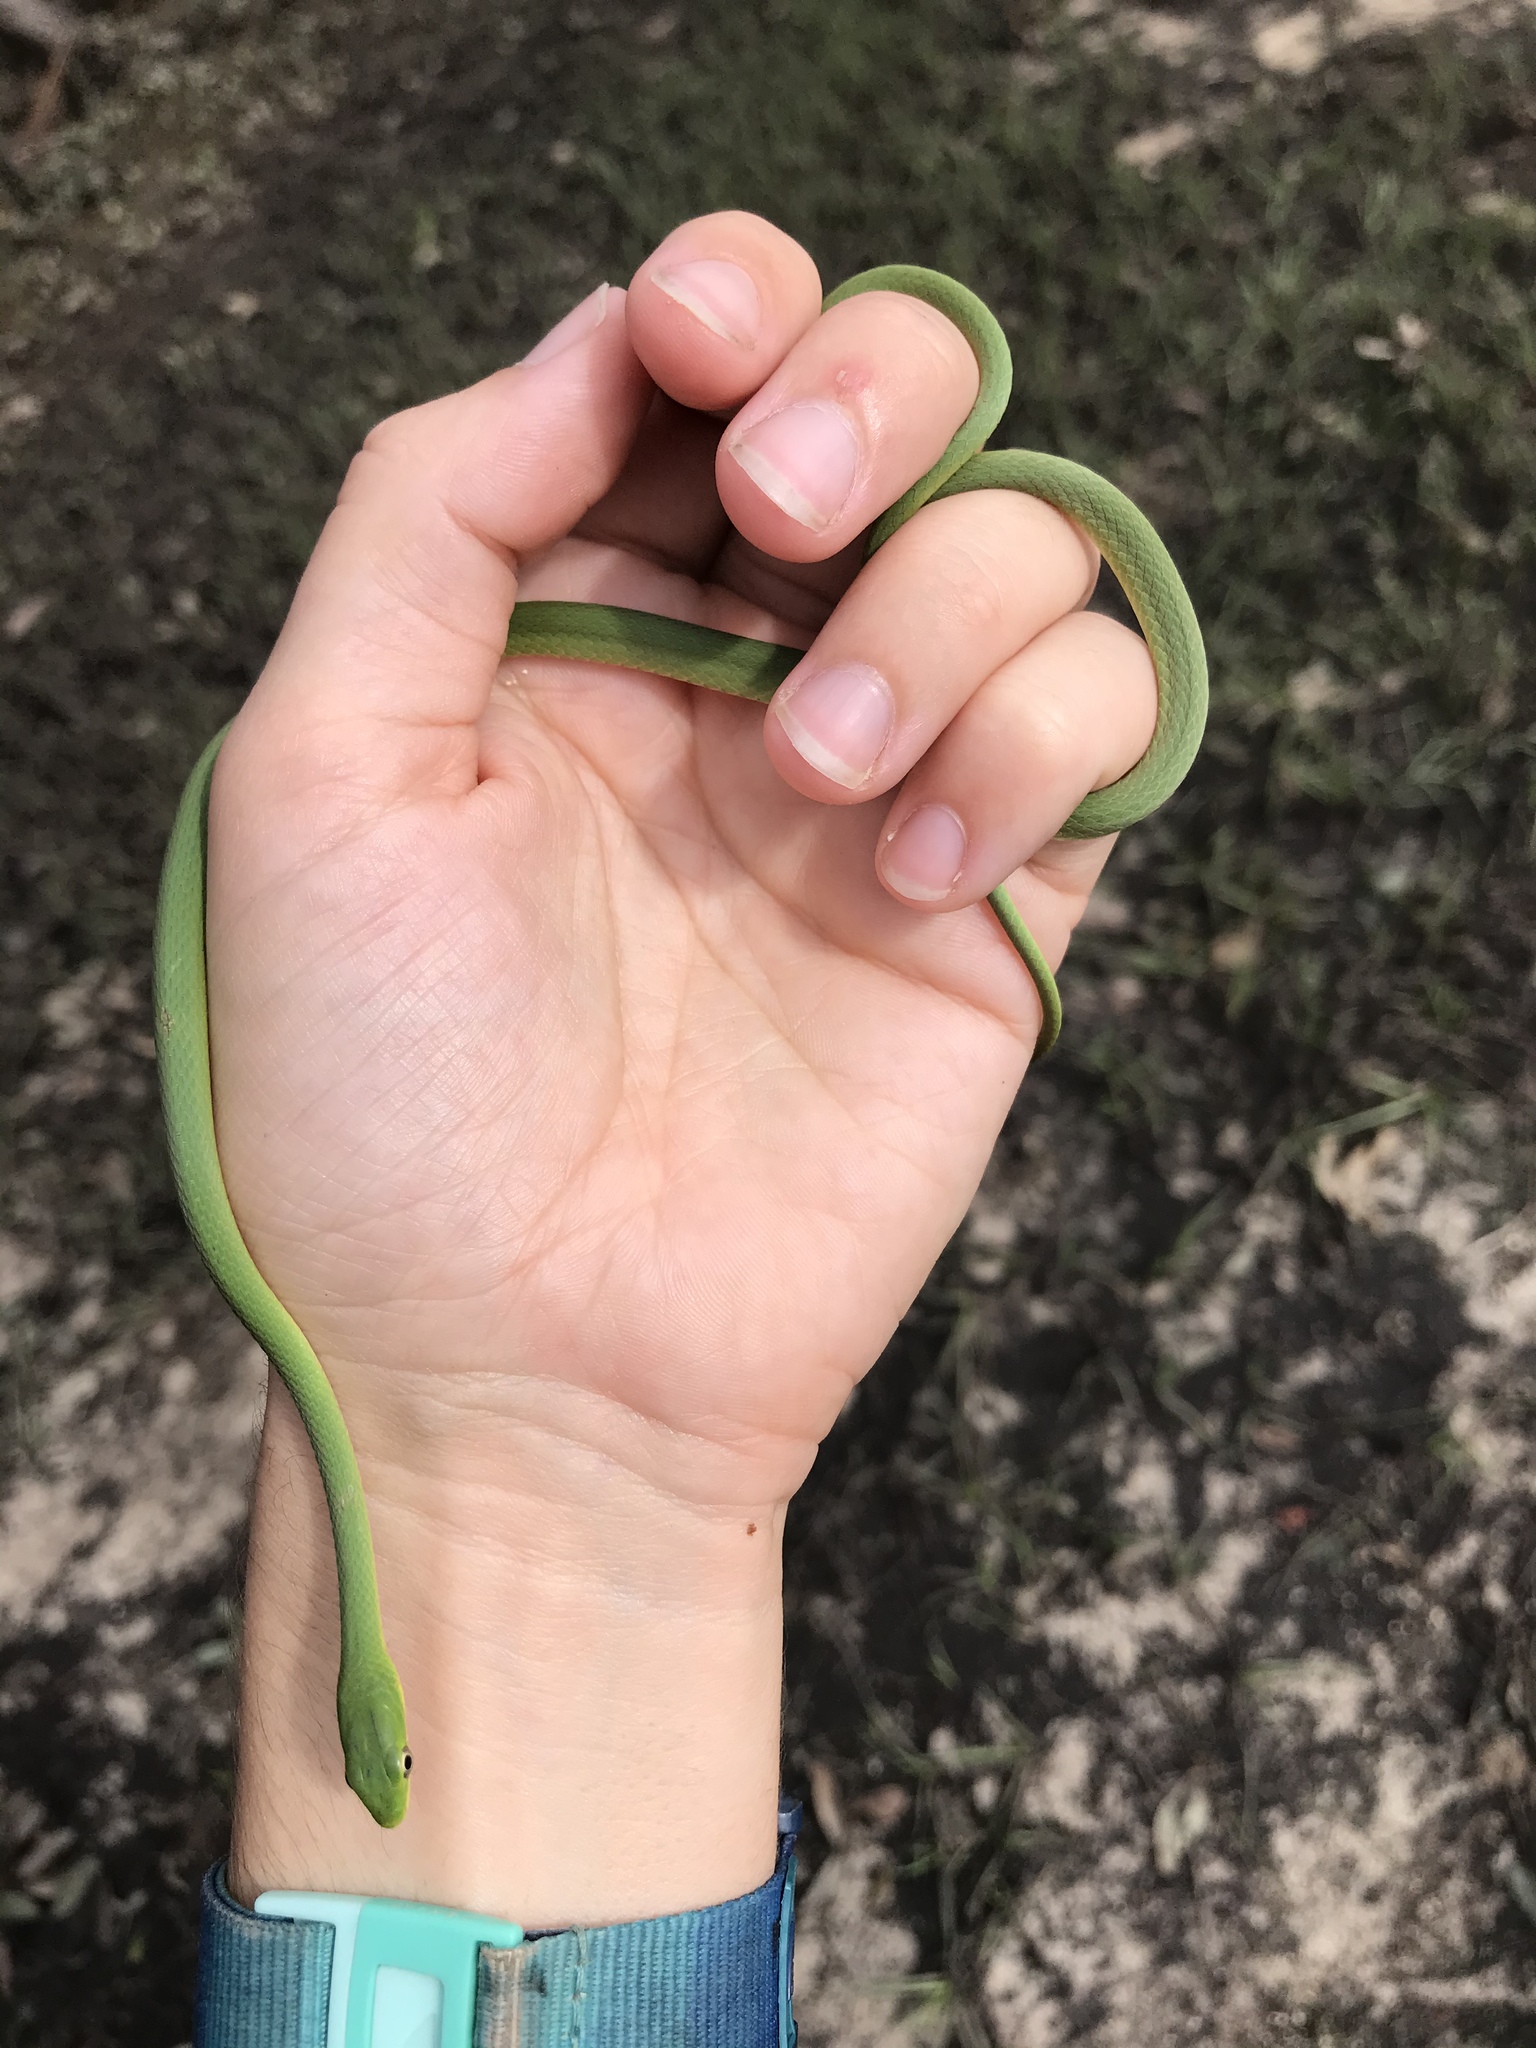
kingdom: Animalia
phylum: Chordata
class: Squamata
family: Colubridae
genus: Opheodrys
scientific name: Opheodrys aestivus
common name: Rough greensnake
